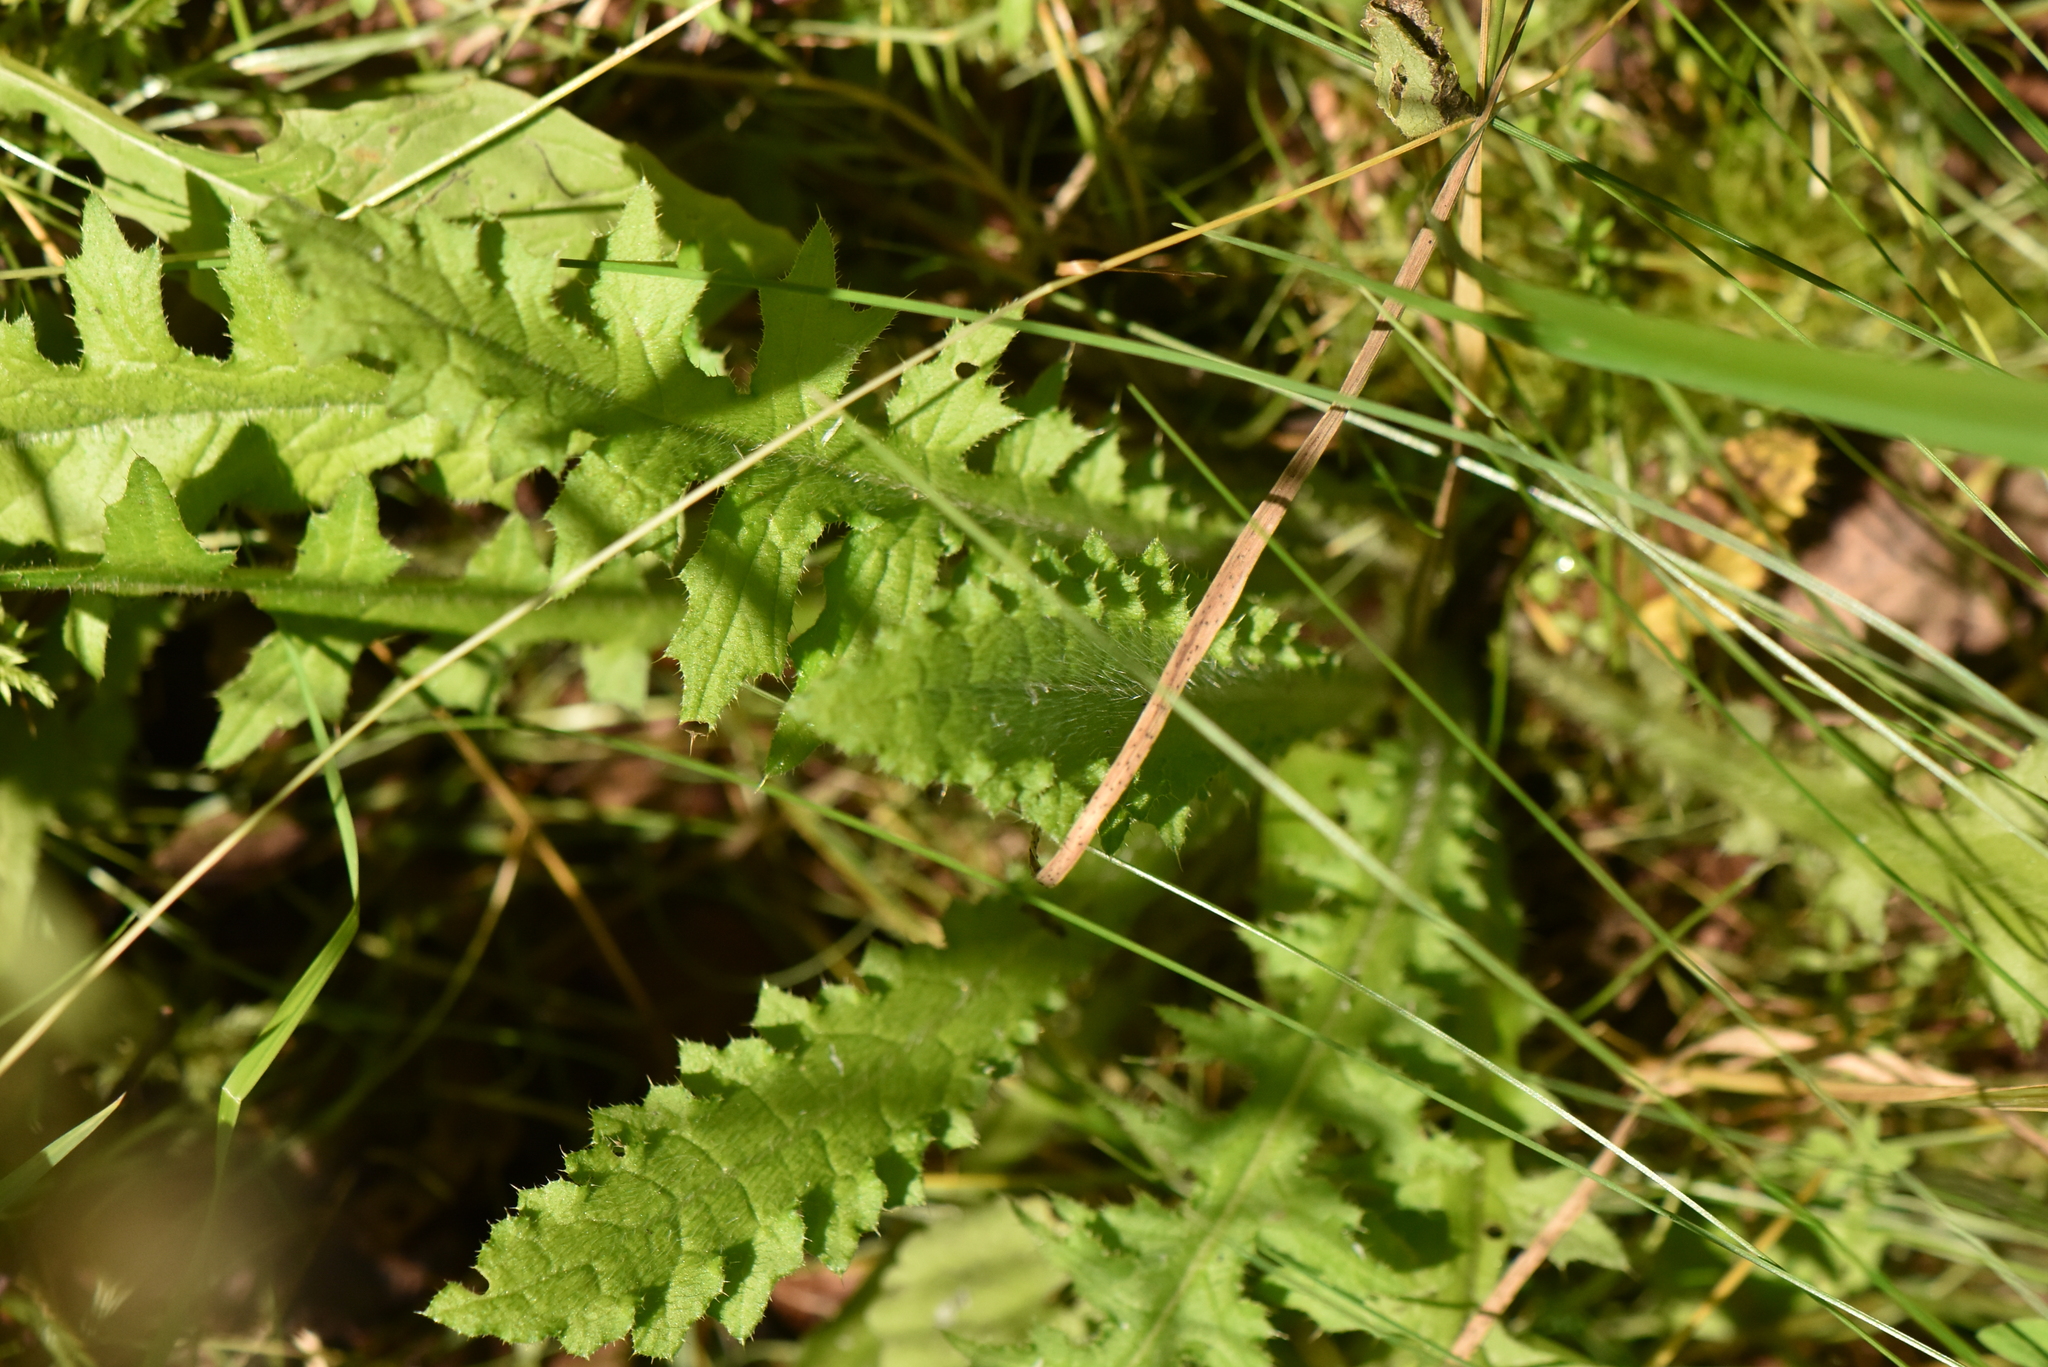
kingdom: Plantae
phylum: Tracheophyta
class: Magnoliopsida
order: Asterales
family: Asteraceae
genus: Cirsium
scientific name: Cirsium palustre
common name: Marsh thistle
